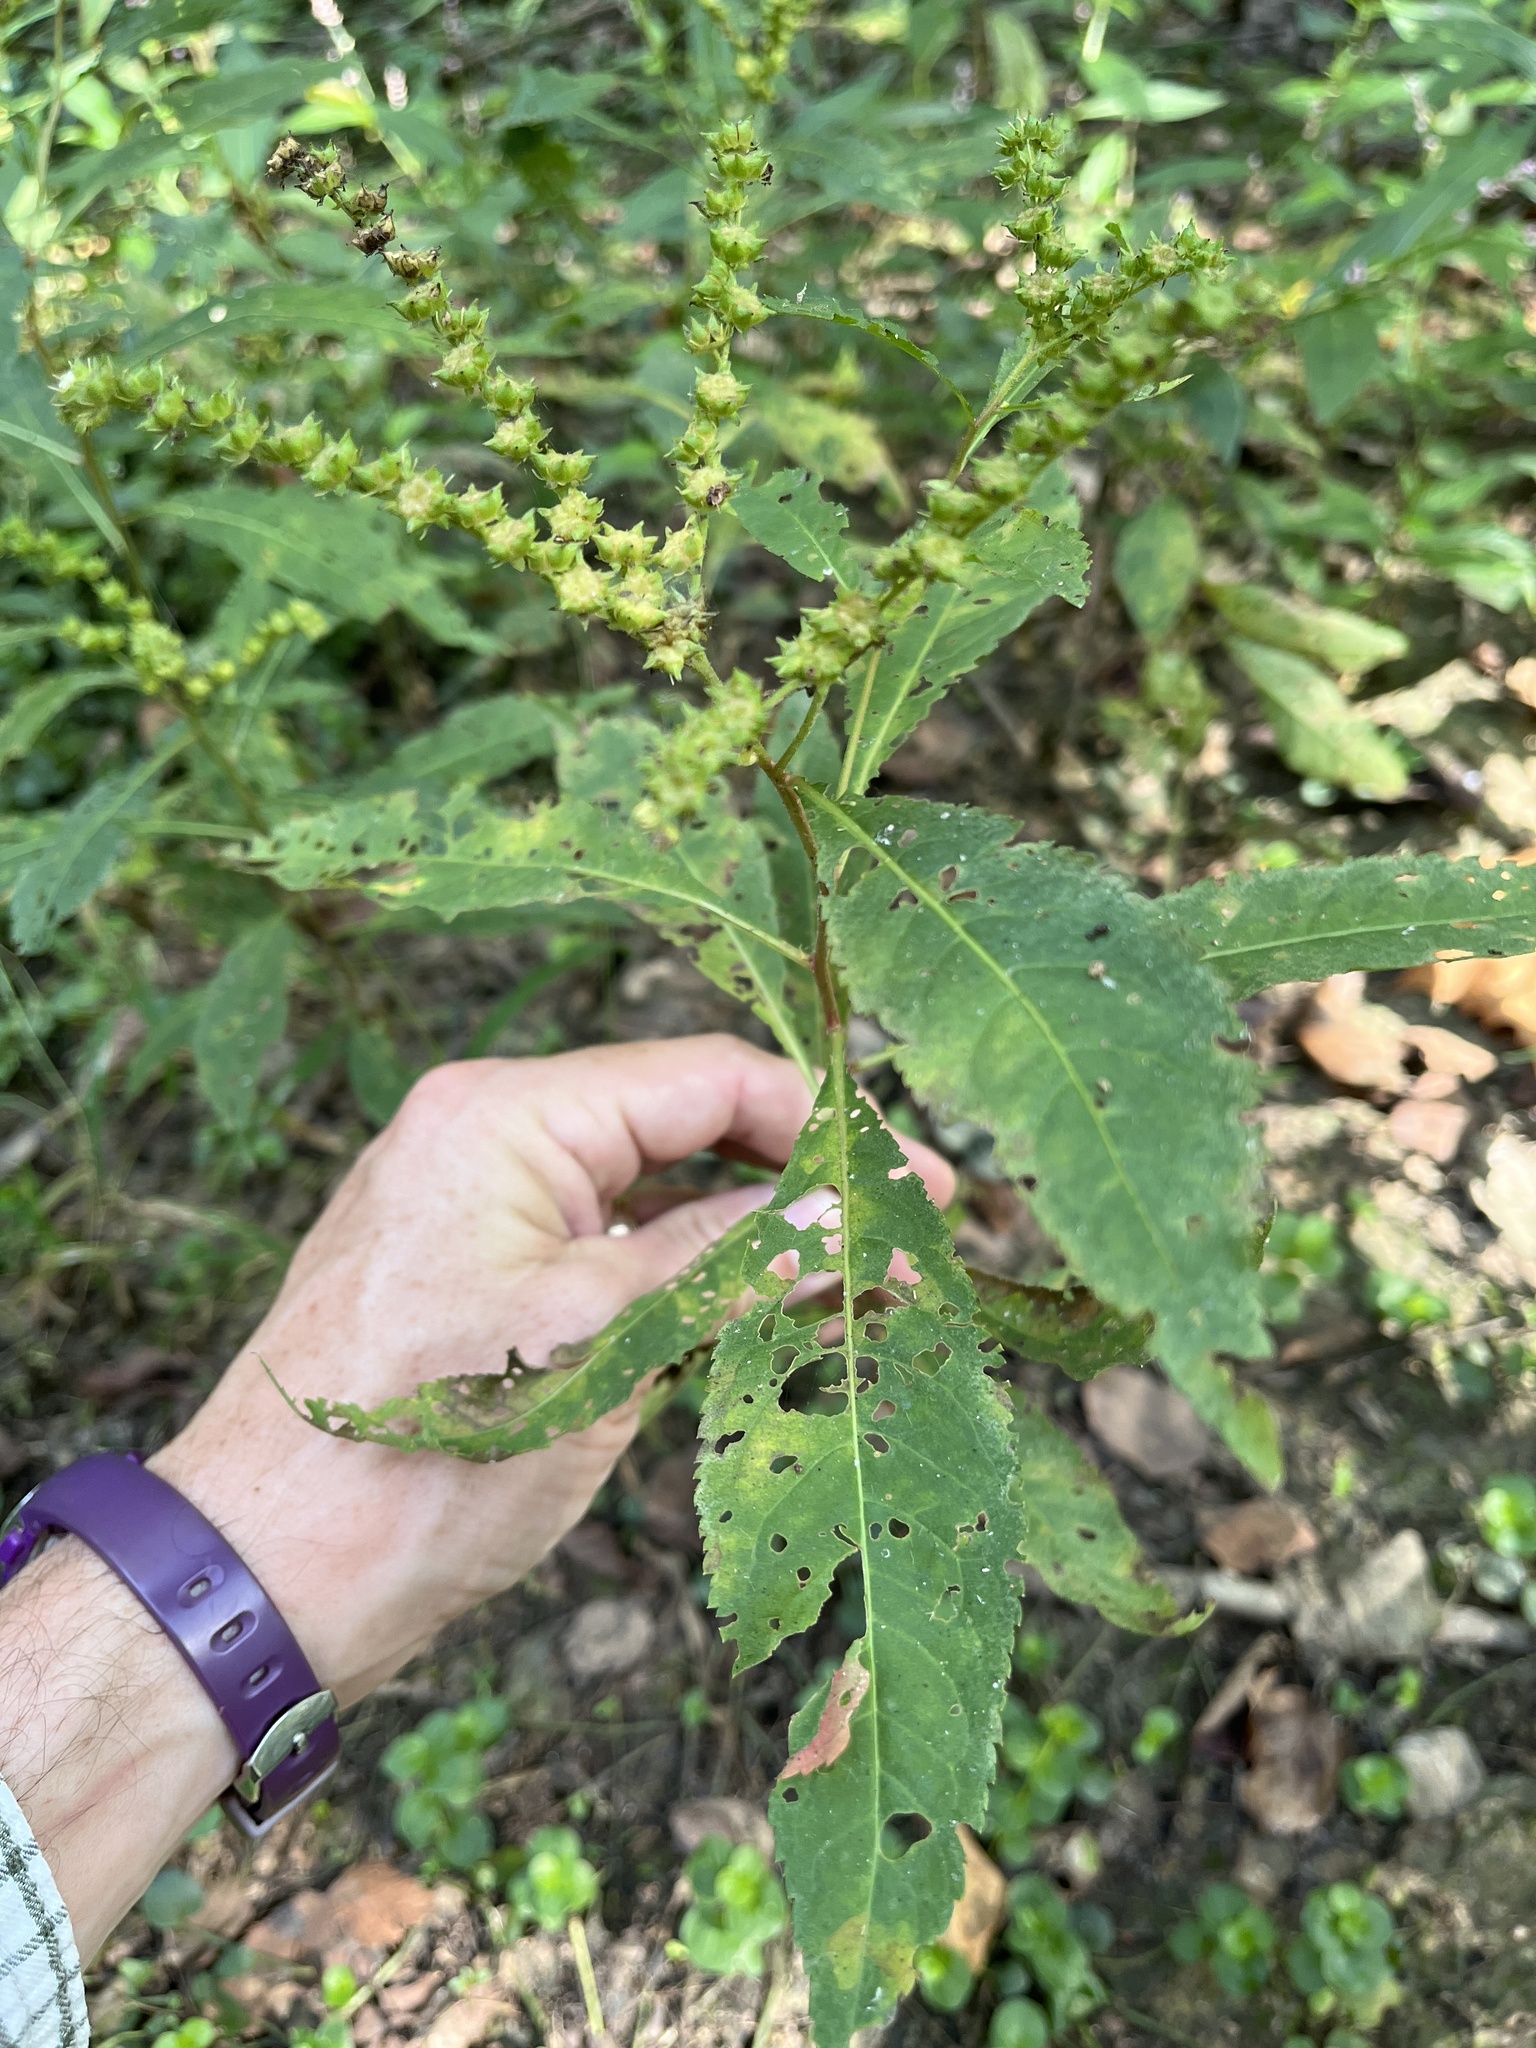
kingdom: Plantae
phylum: Tracheophyta
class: Magnoliopsida
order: Saxifragales
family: Penthoraceae
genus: Penthorum
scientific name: Penthorum sedoides
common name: Ditch stonecrop
